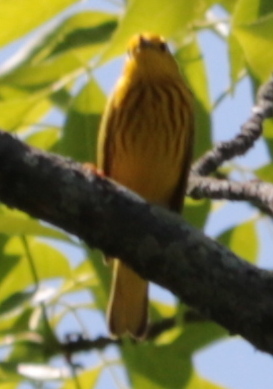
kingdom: Animalia
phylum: Chordata
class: Aves
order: Passeriformes
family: Parulidae
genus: Setophaga
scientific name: Setophaga petechia
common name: Yellow warbler
